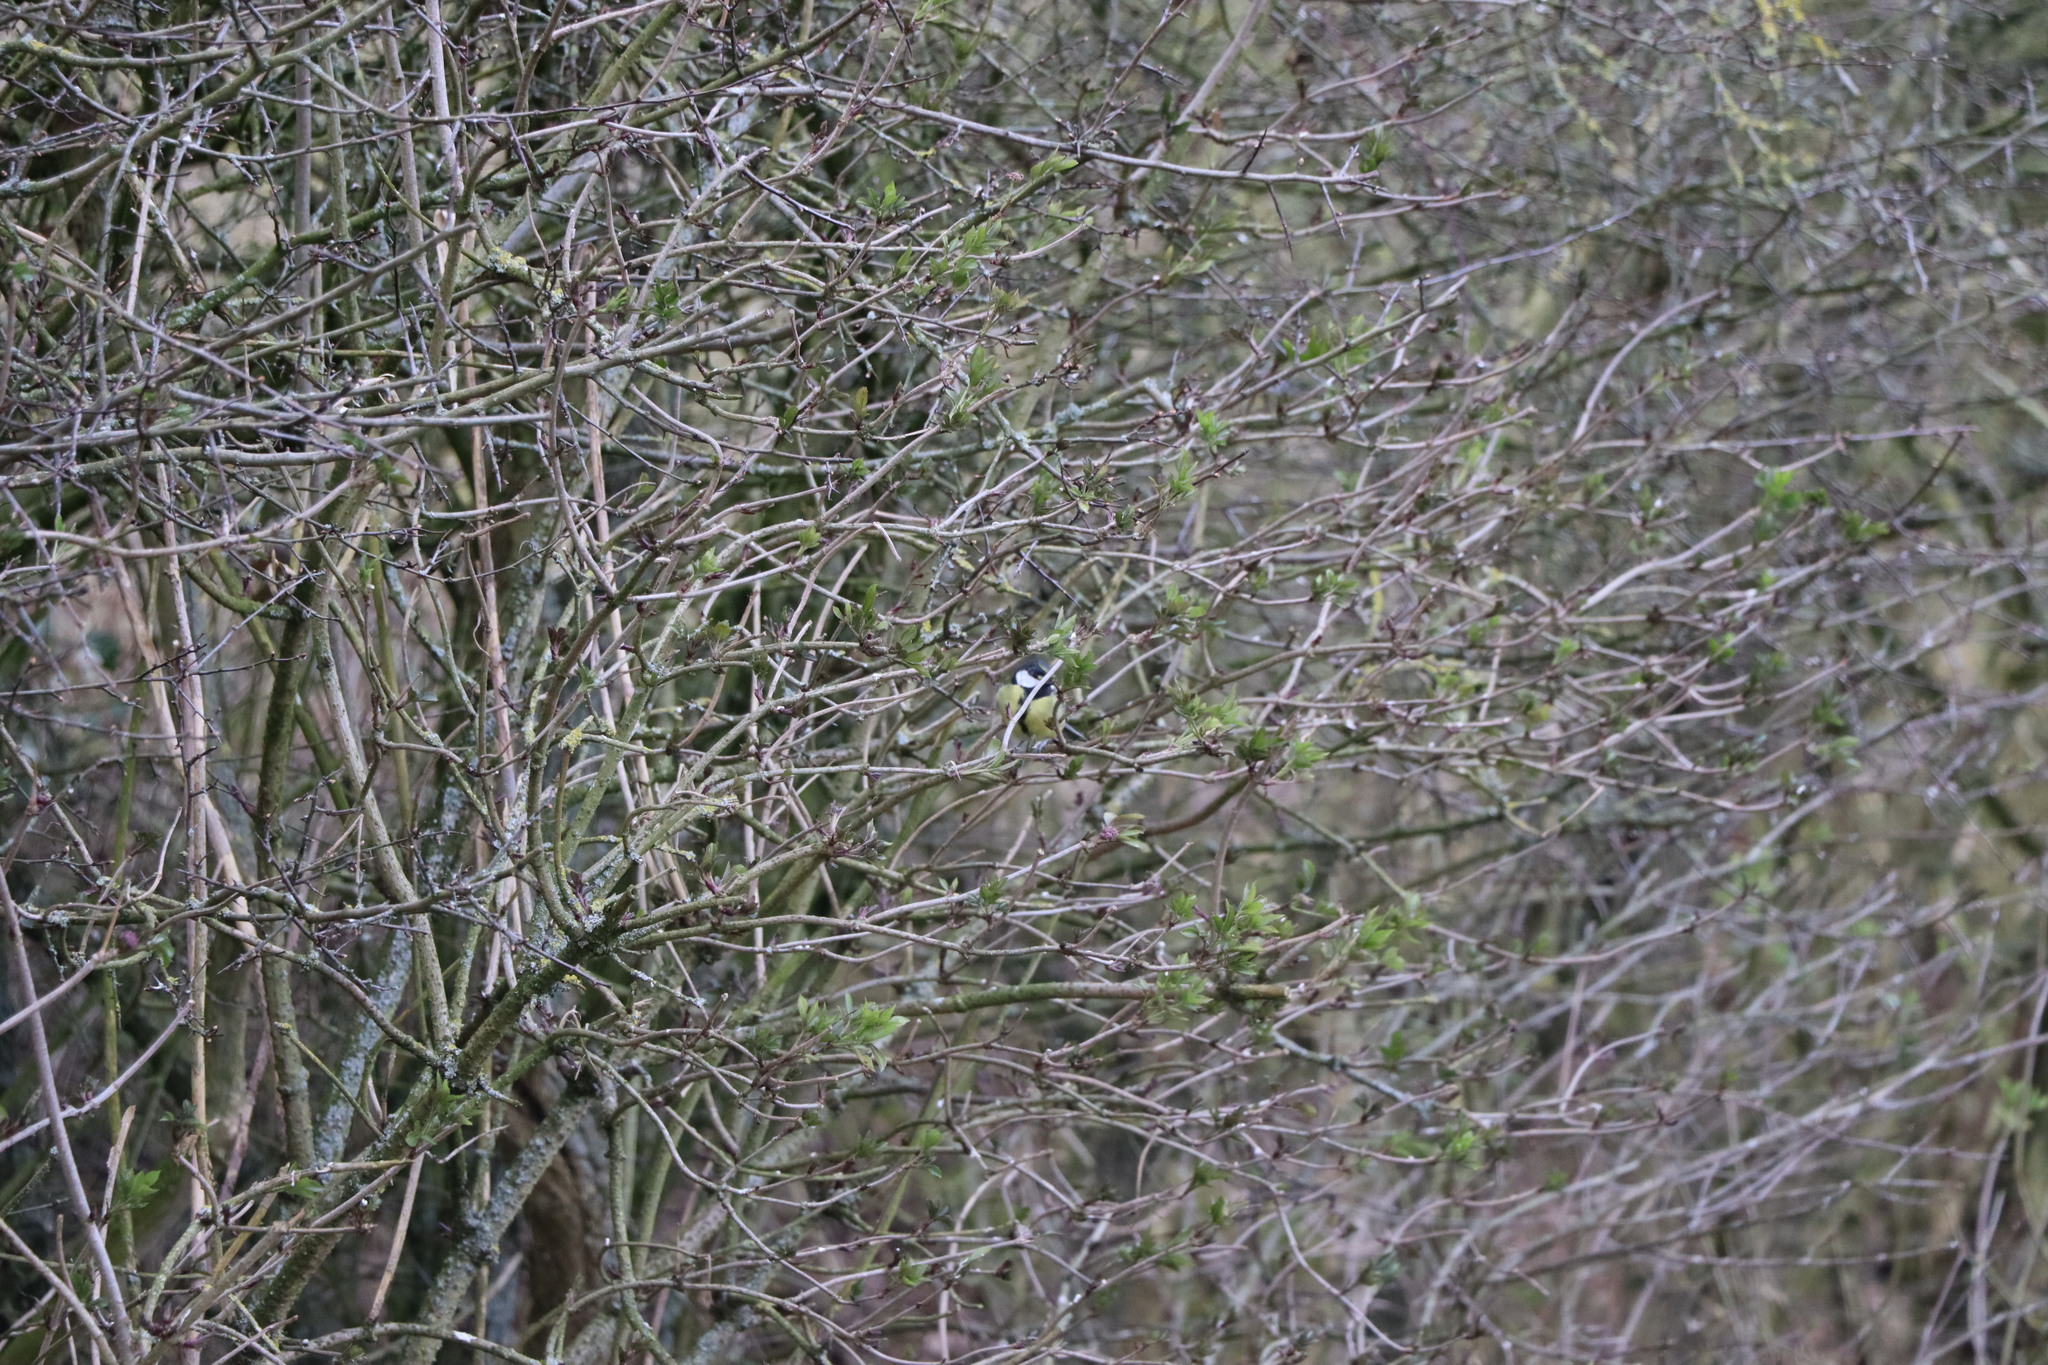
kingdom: Animalia
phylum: Chordata
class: Aves
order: Passeriformes
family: Paridae
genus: Parus
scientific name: Parus major
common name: Great tit
